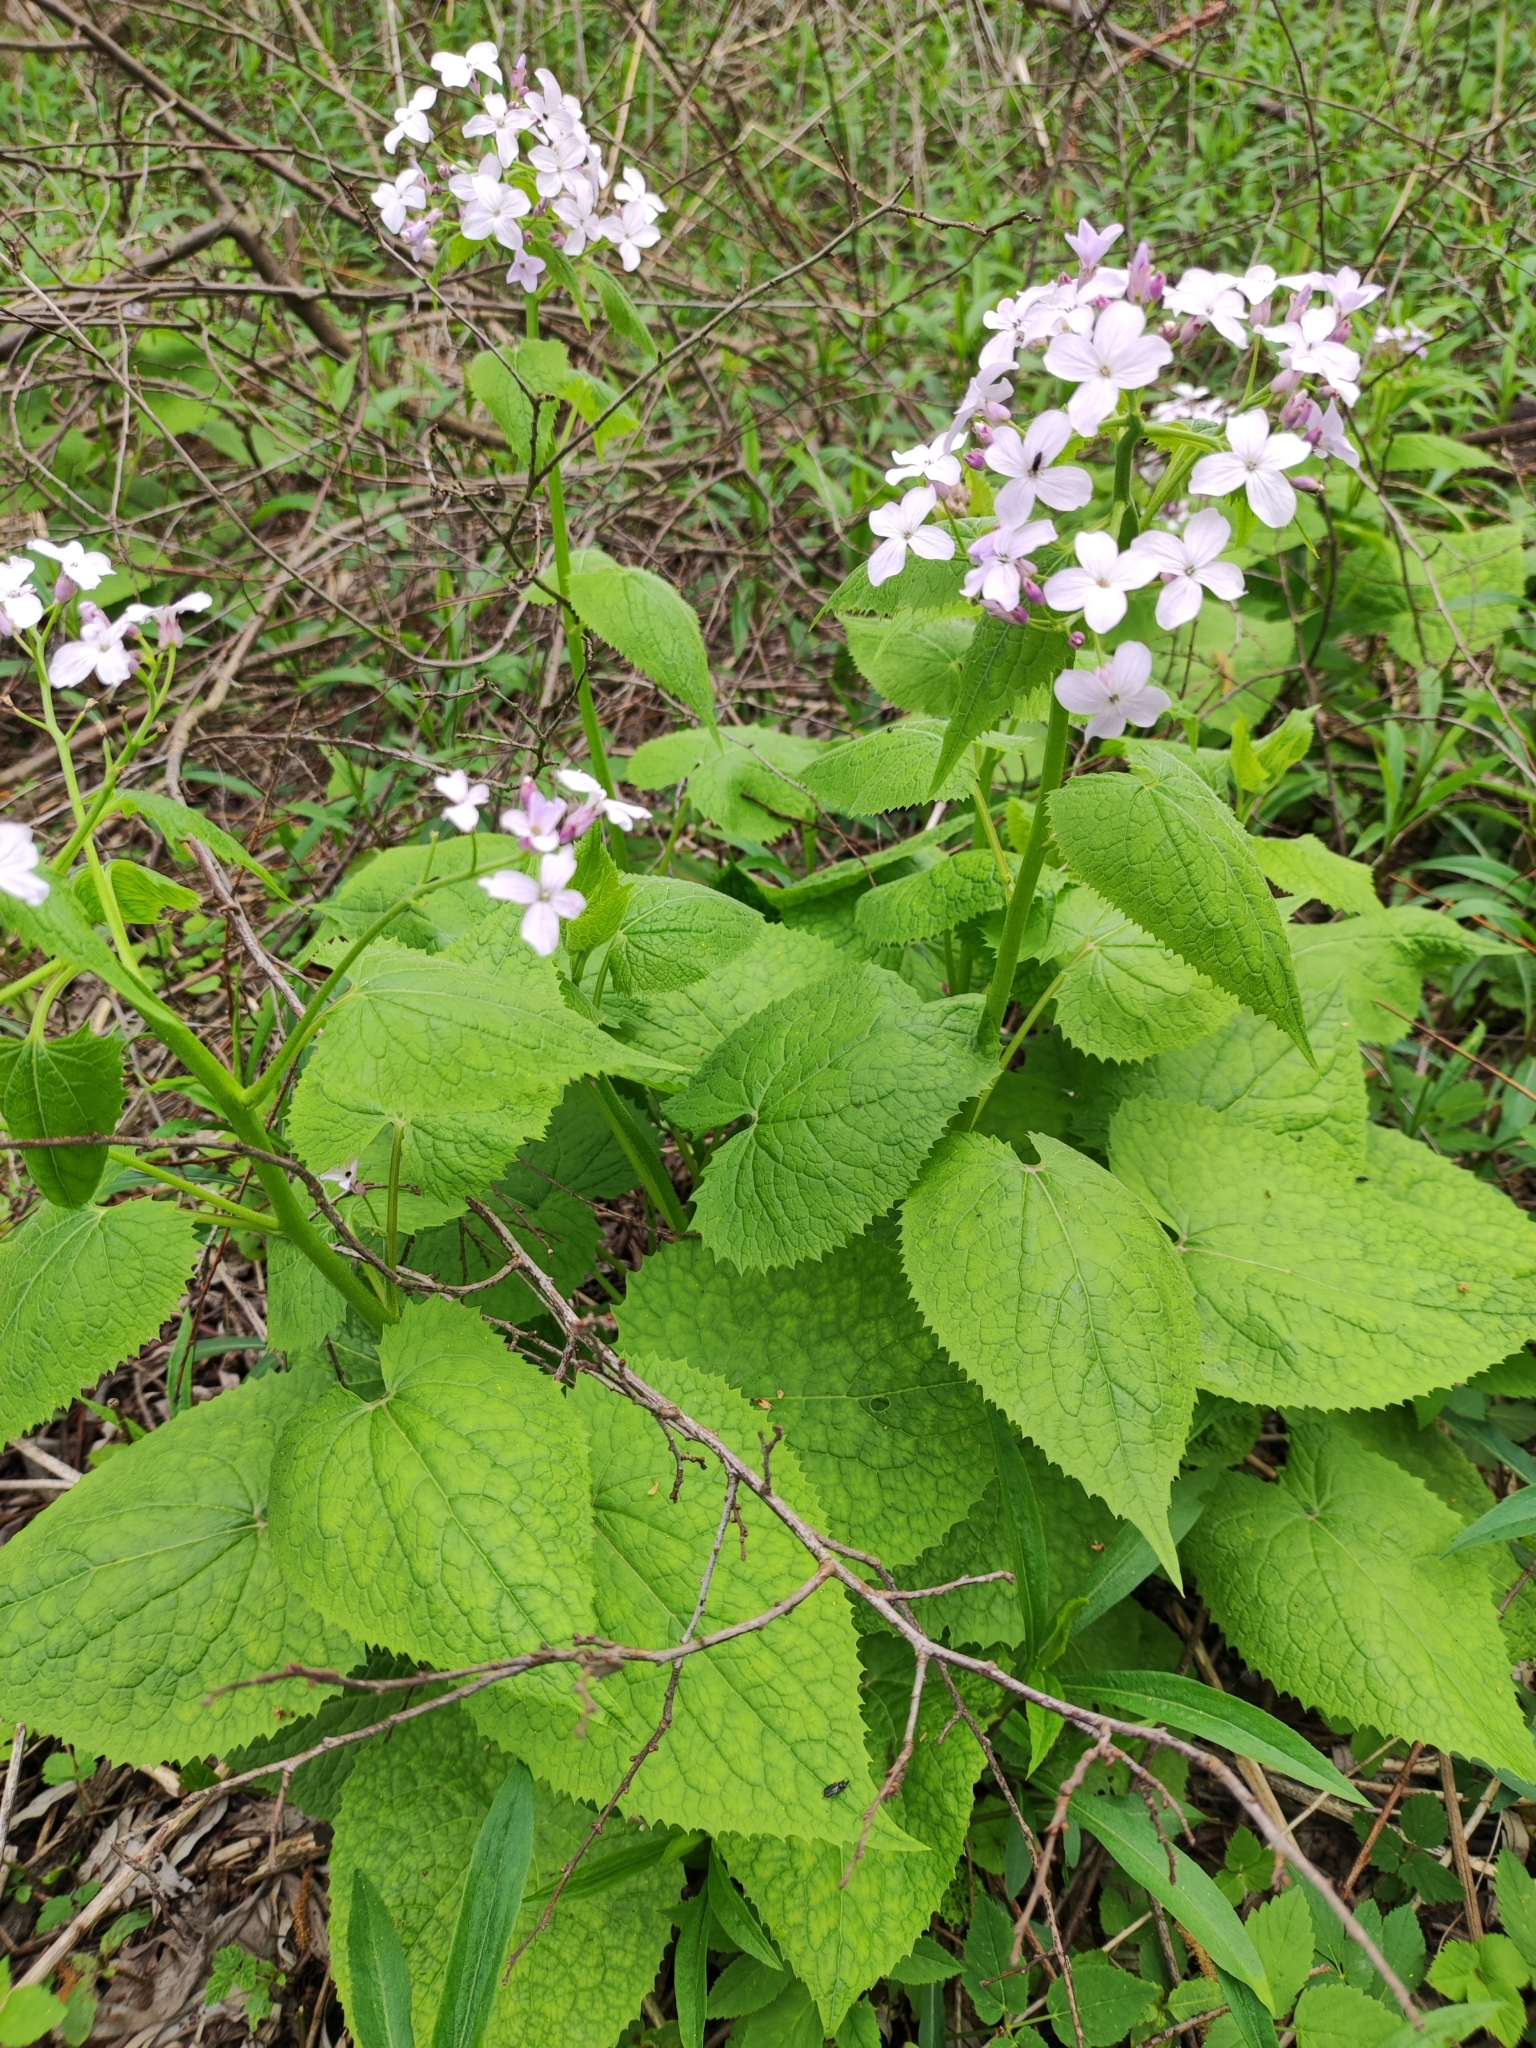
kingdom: Plantae
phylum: Tracheophyta
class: Magnoliopsida
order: Brassicales
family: Brassicaceae
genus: Lunaria
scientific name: Lunaria rediviva
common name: Perennial honesty
